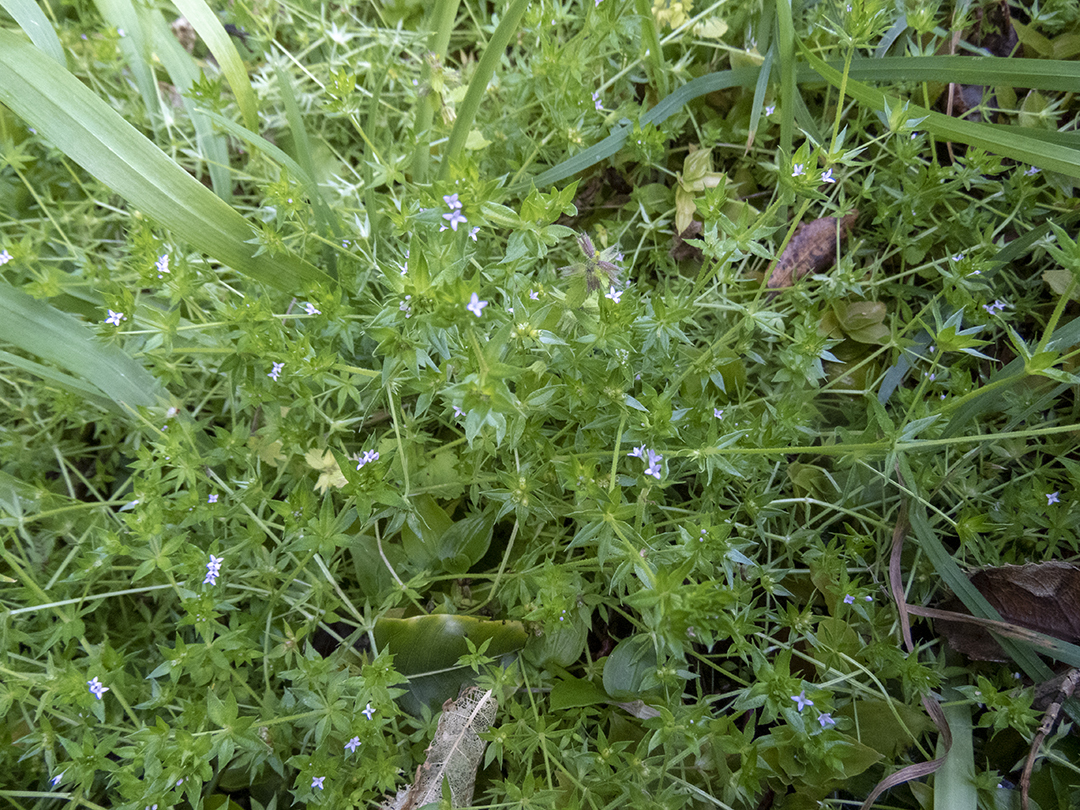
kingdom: Plantae
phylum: Tracheophyta
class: Magnoliopsida
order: Gentianales
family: Rubiaceae
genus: Sherardia
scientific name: Sherardia arvensis
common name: Field madder
